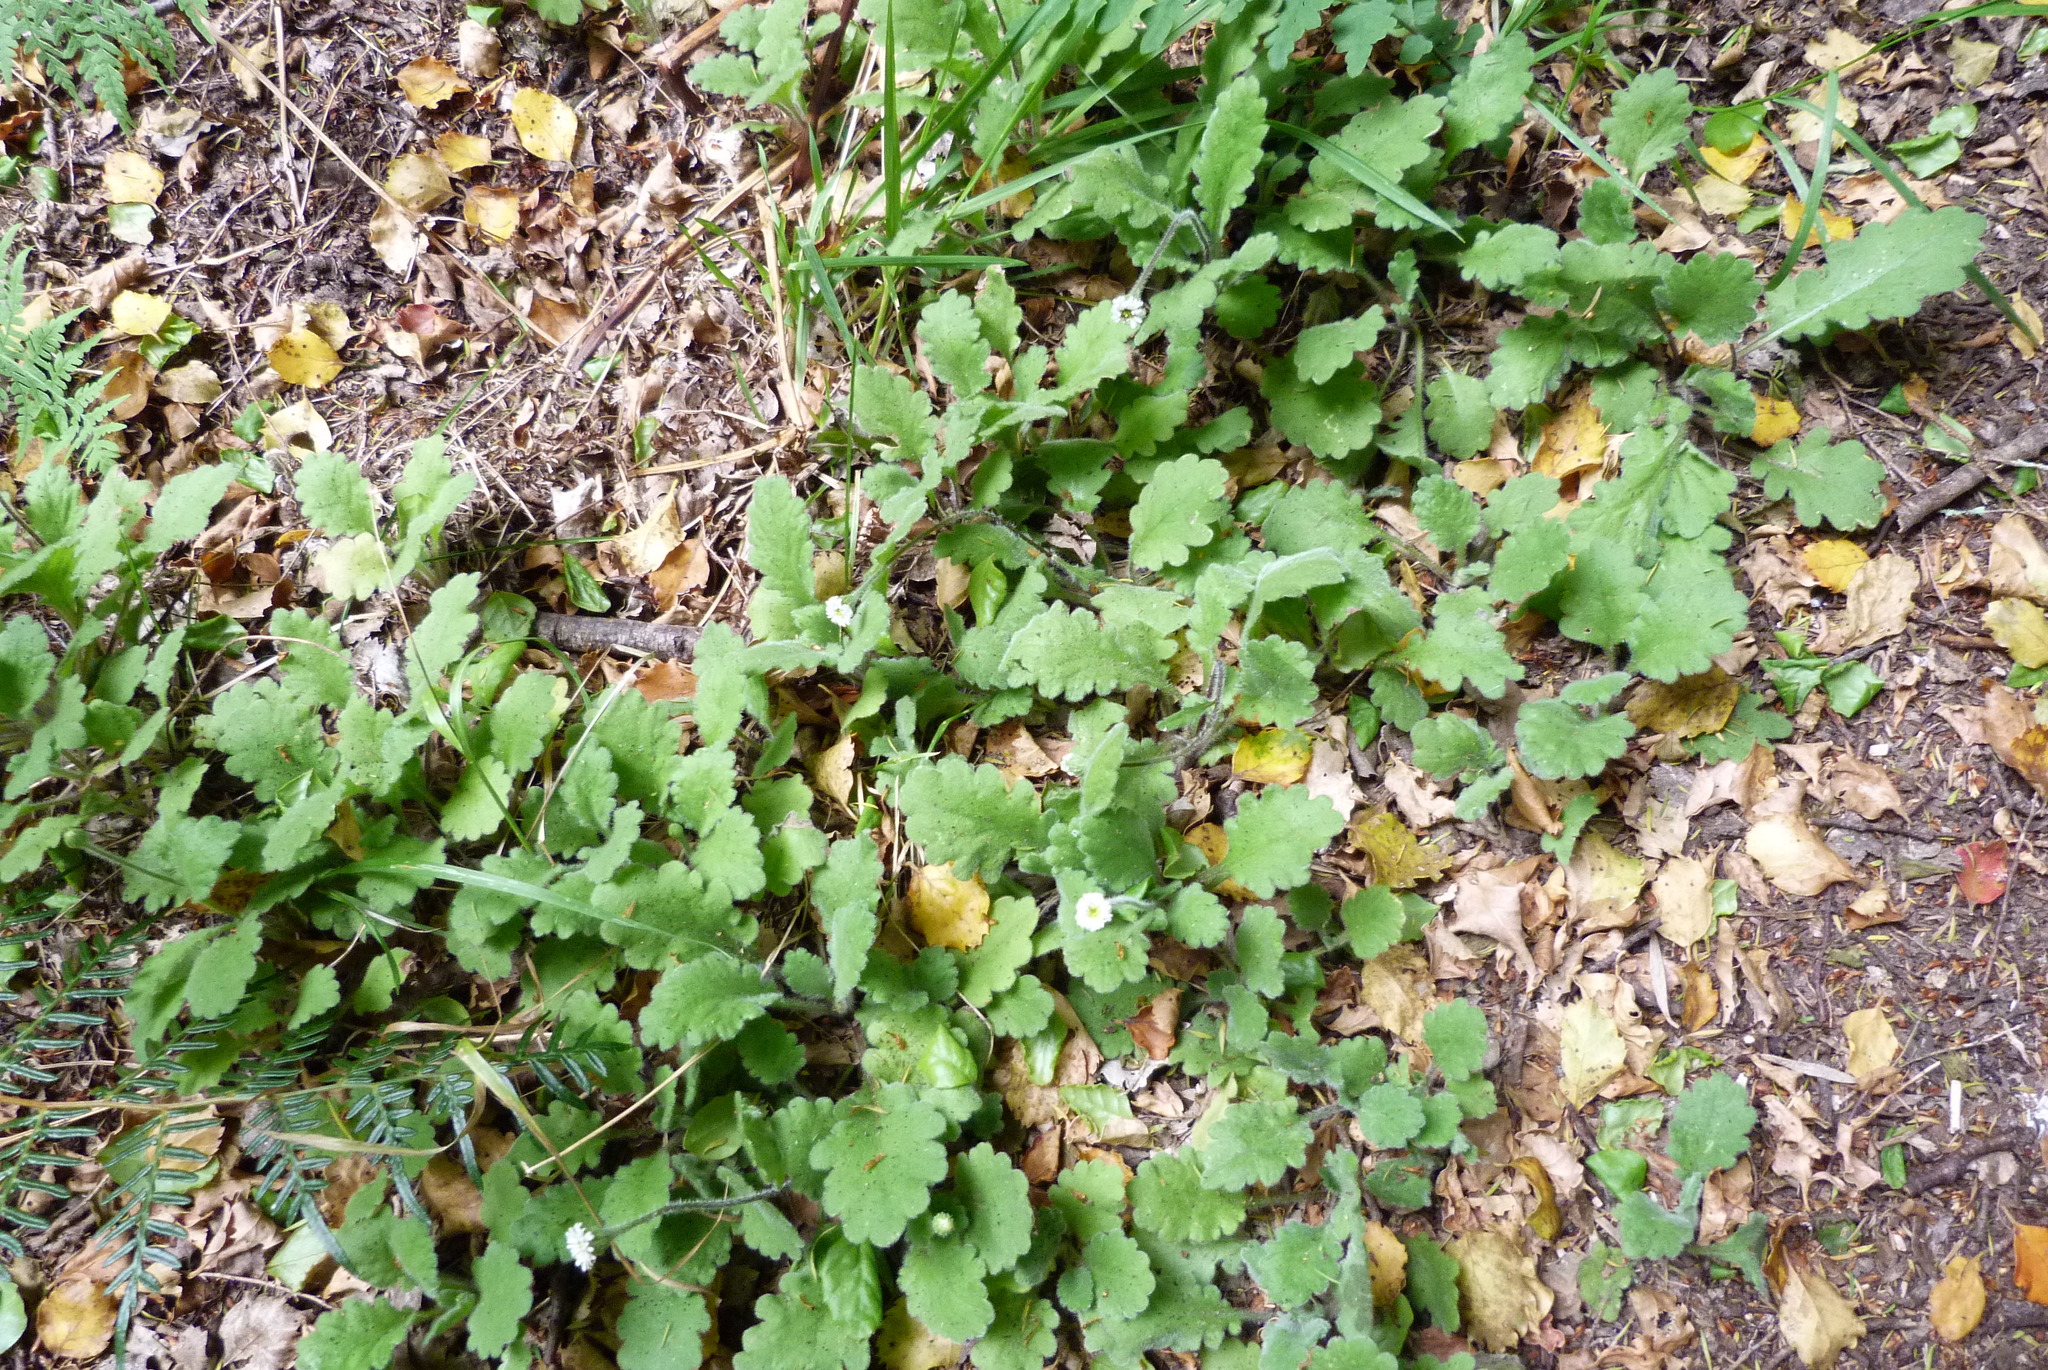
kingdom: Plantae
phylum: Tracheophyta
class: Magnoliopsida
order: Asterales
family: Asteraceae
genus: Lagenophora
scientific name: Lagenophora pinnatifida
